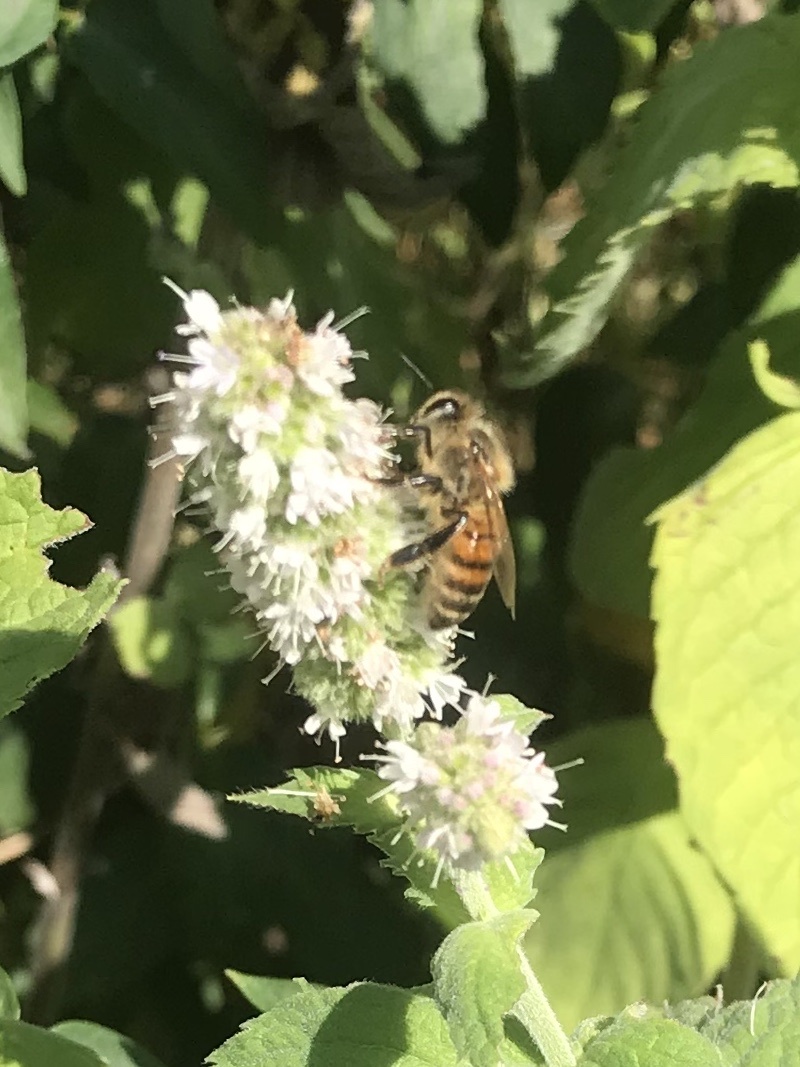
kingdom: Animalia
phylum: Arthropoda
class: Insecta
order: Hymenoptera
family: Apidae
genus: Apis
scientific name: Apis mellifera
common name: Honey bee
